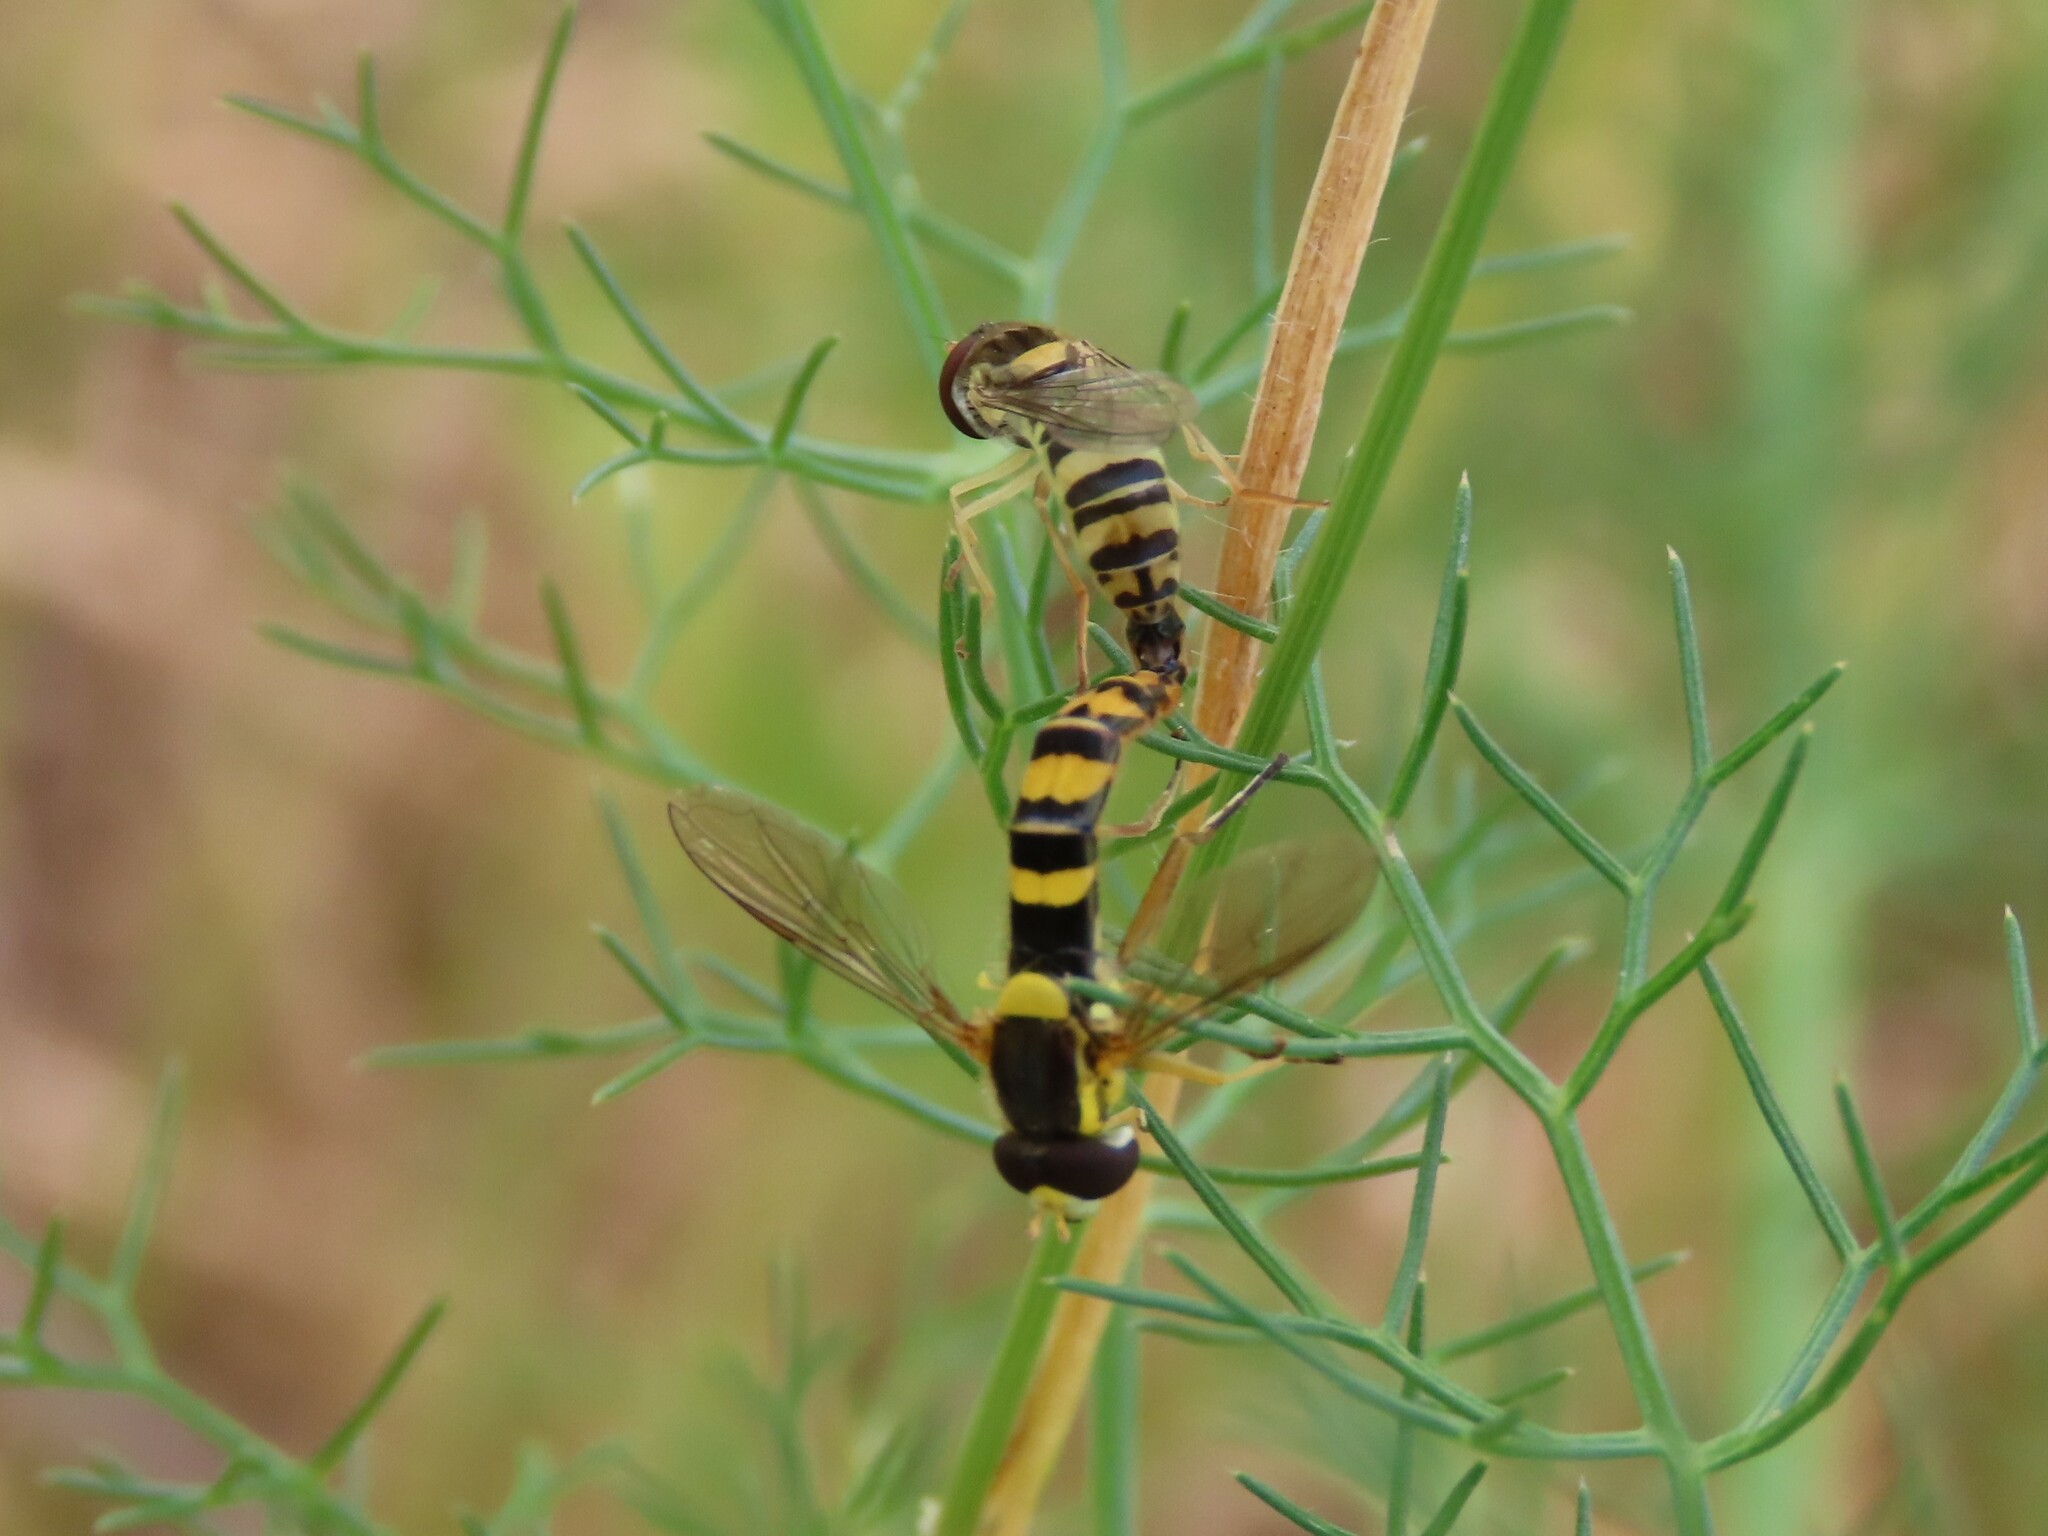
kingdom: Animalia
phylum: Arthropoda
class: Insecta
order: Diptera
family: Syrphidae
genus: Sphaerophoria
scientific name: Sphaerophoria scripta
